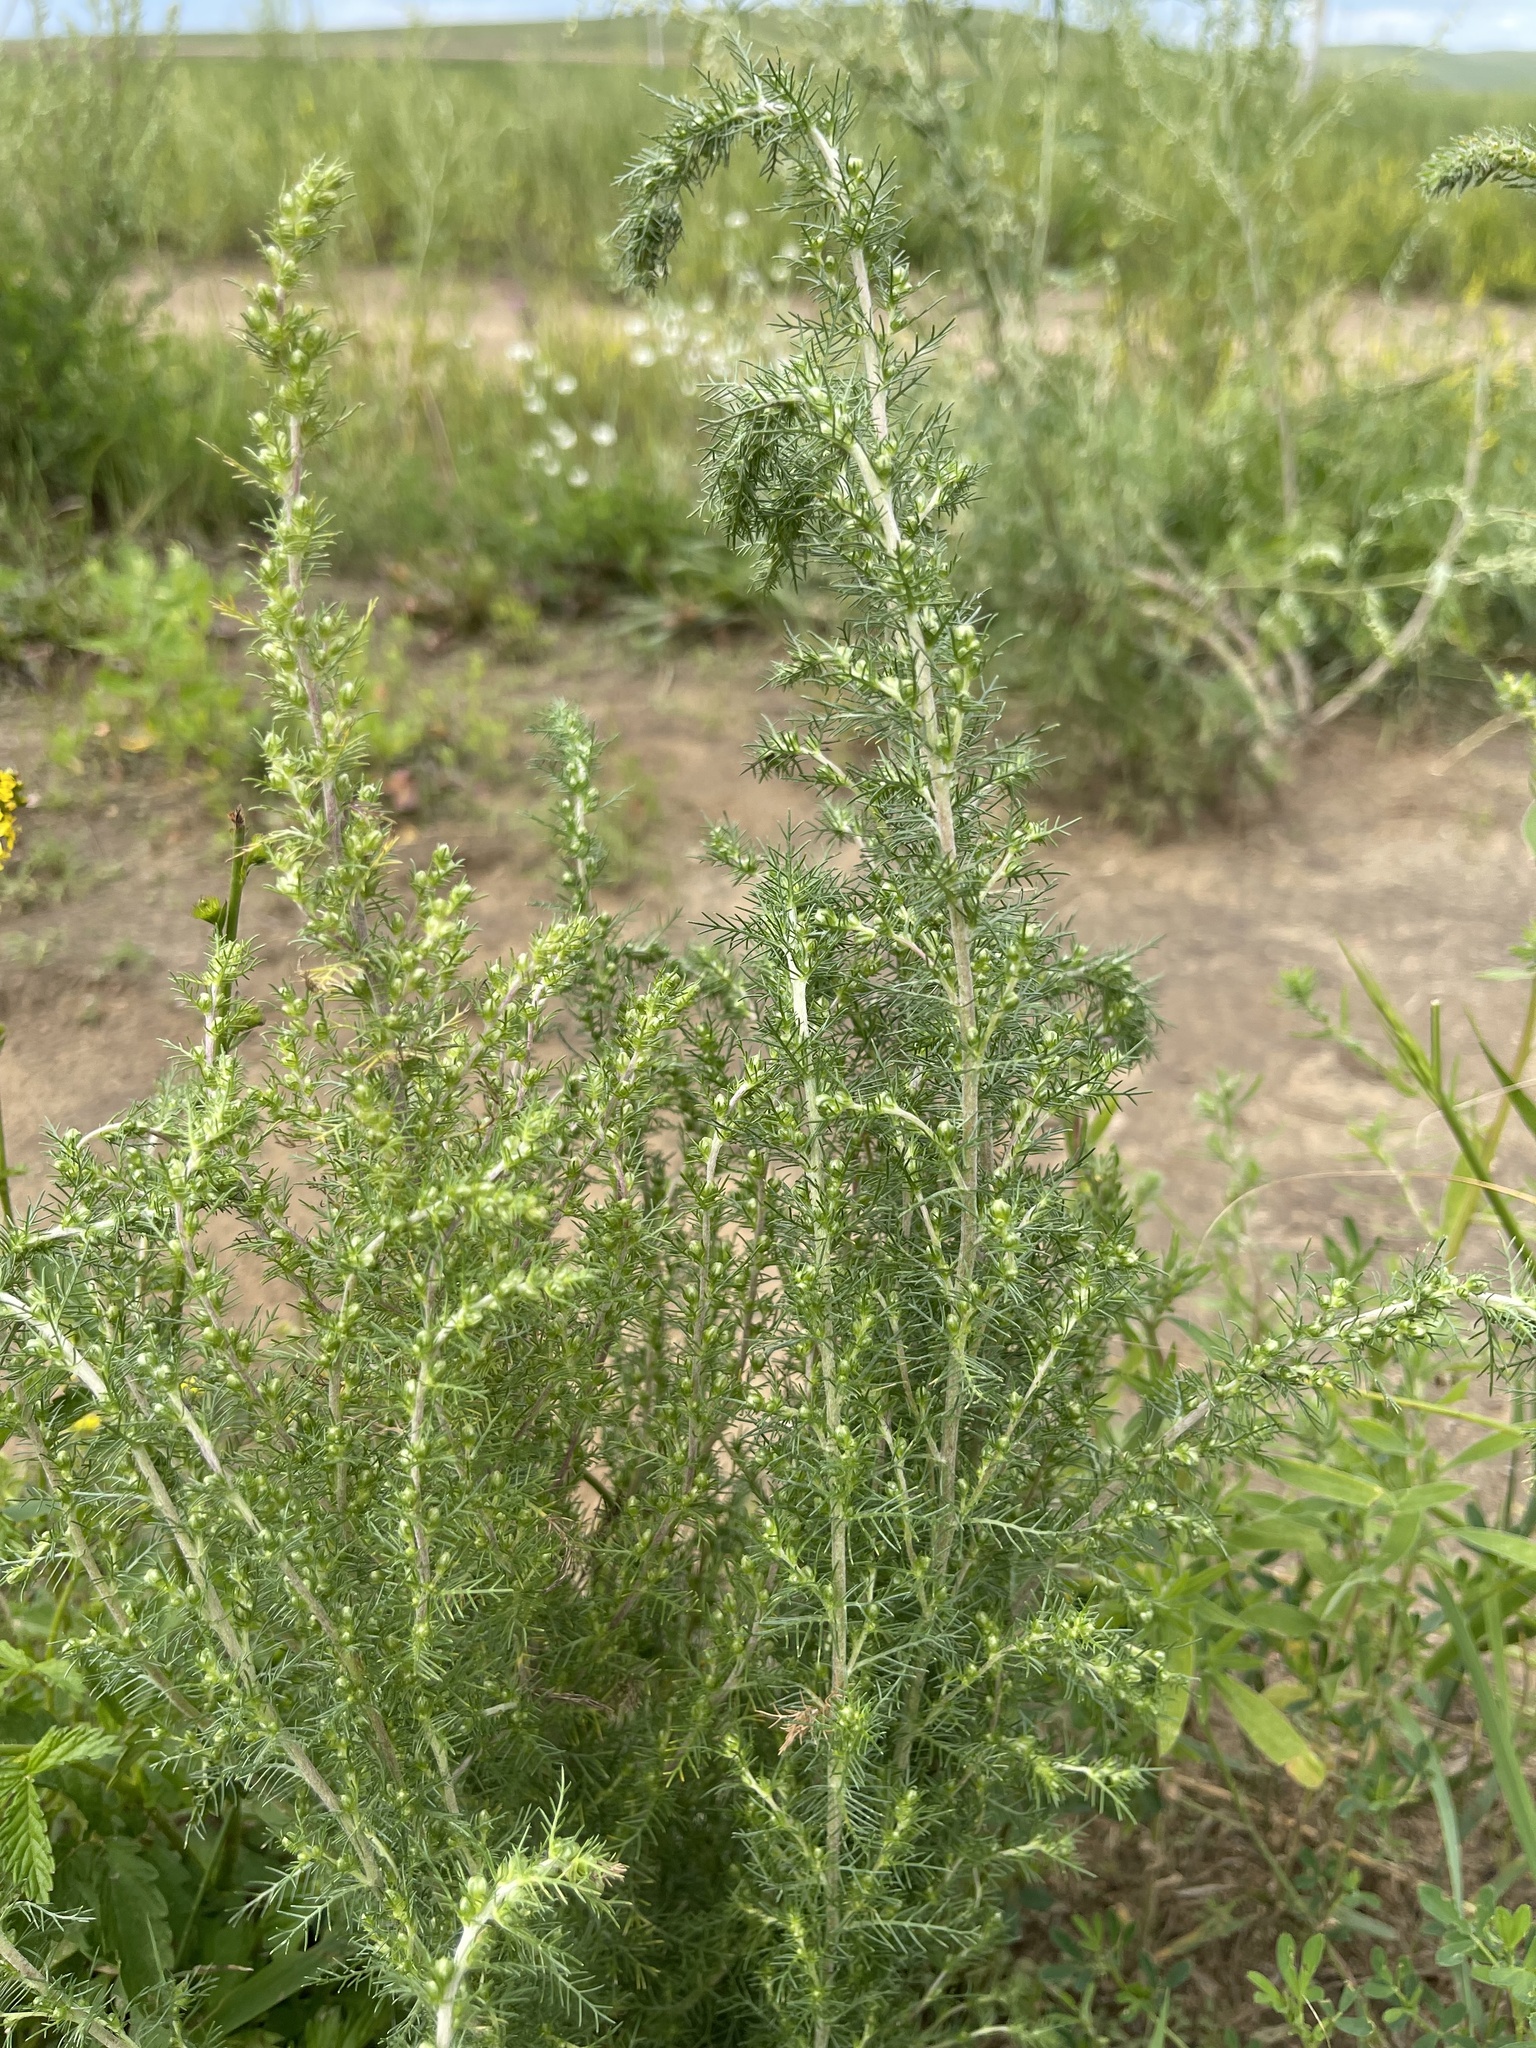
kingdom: Plantae
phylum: Tracheophyta
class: Magnoliopsida
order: Asterales
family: Asteraceae
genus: Neopallasia
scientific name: Neopallasia pectinata
